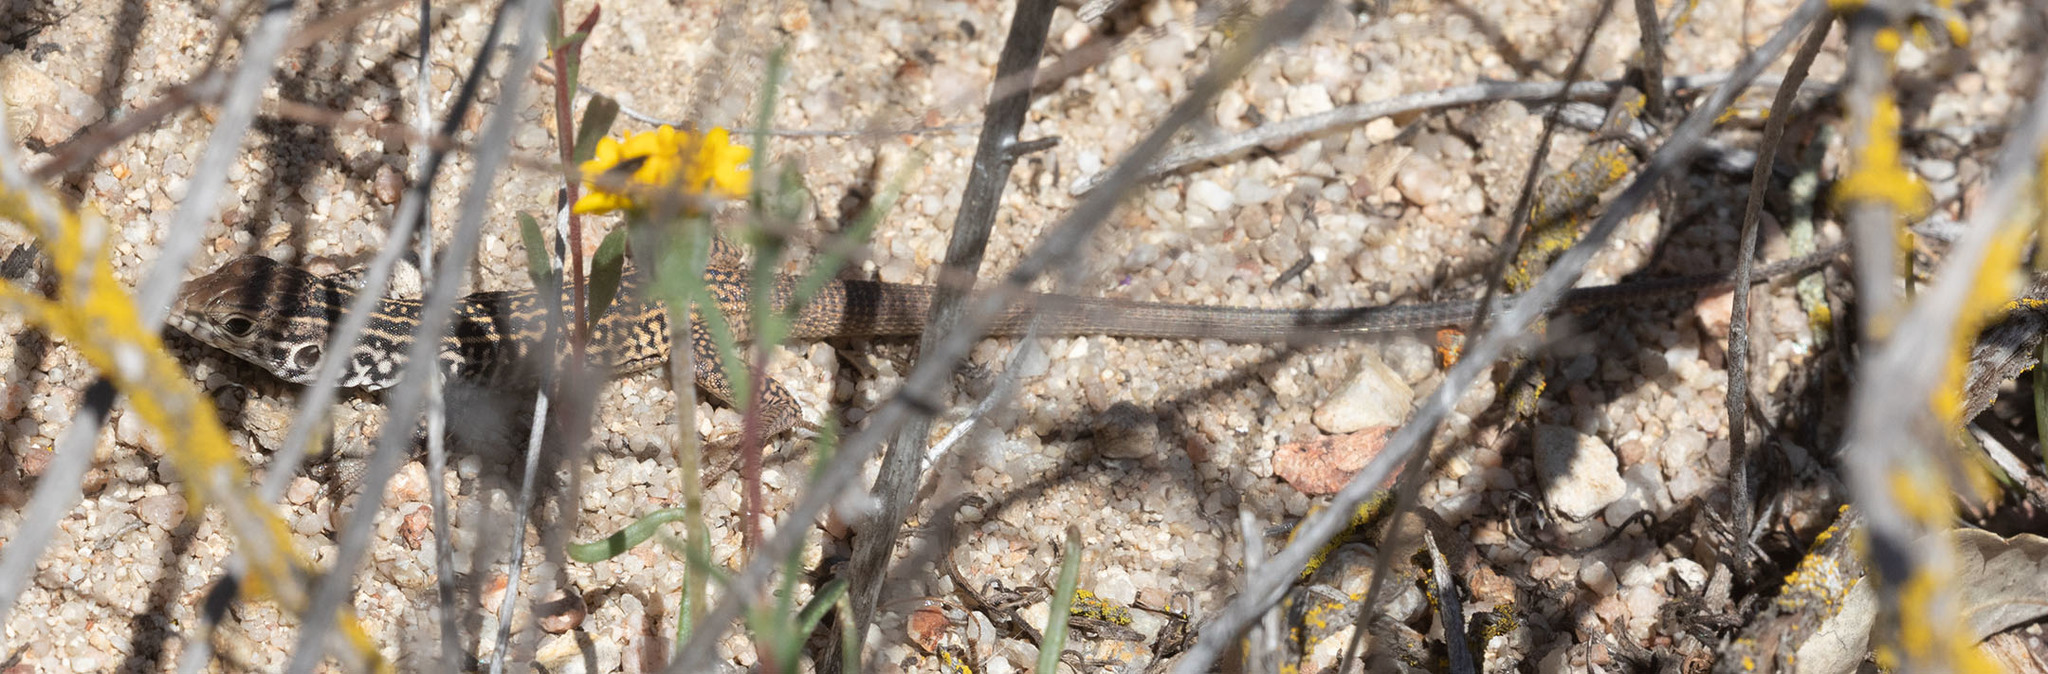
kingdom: Animalia
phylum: Chordata
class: Squamata
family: Teiidae
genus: Aspidoscelis
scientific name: Aspidoscelis tigris
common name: Tiger whiptail
